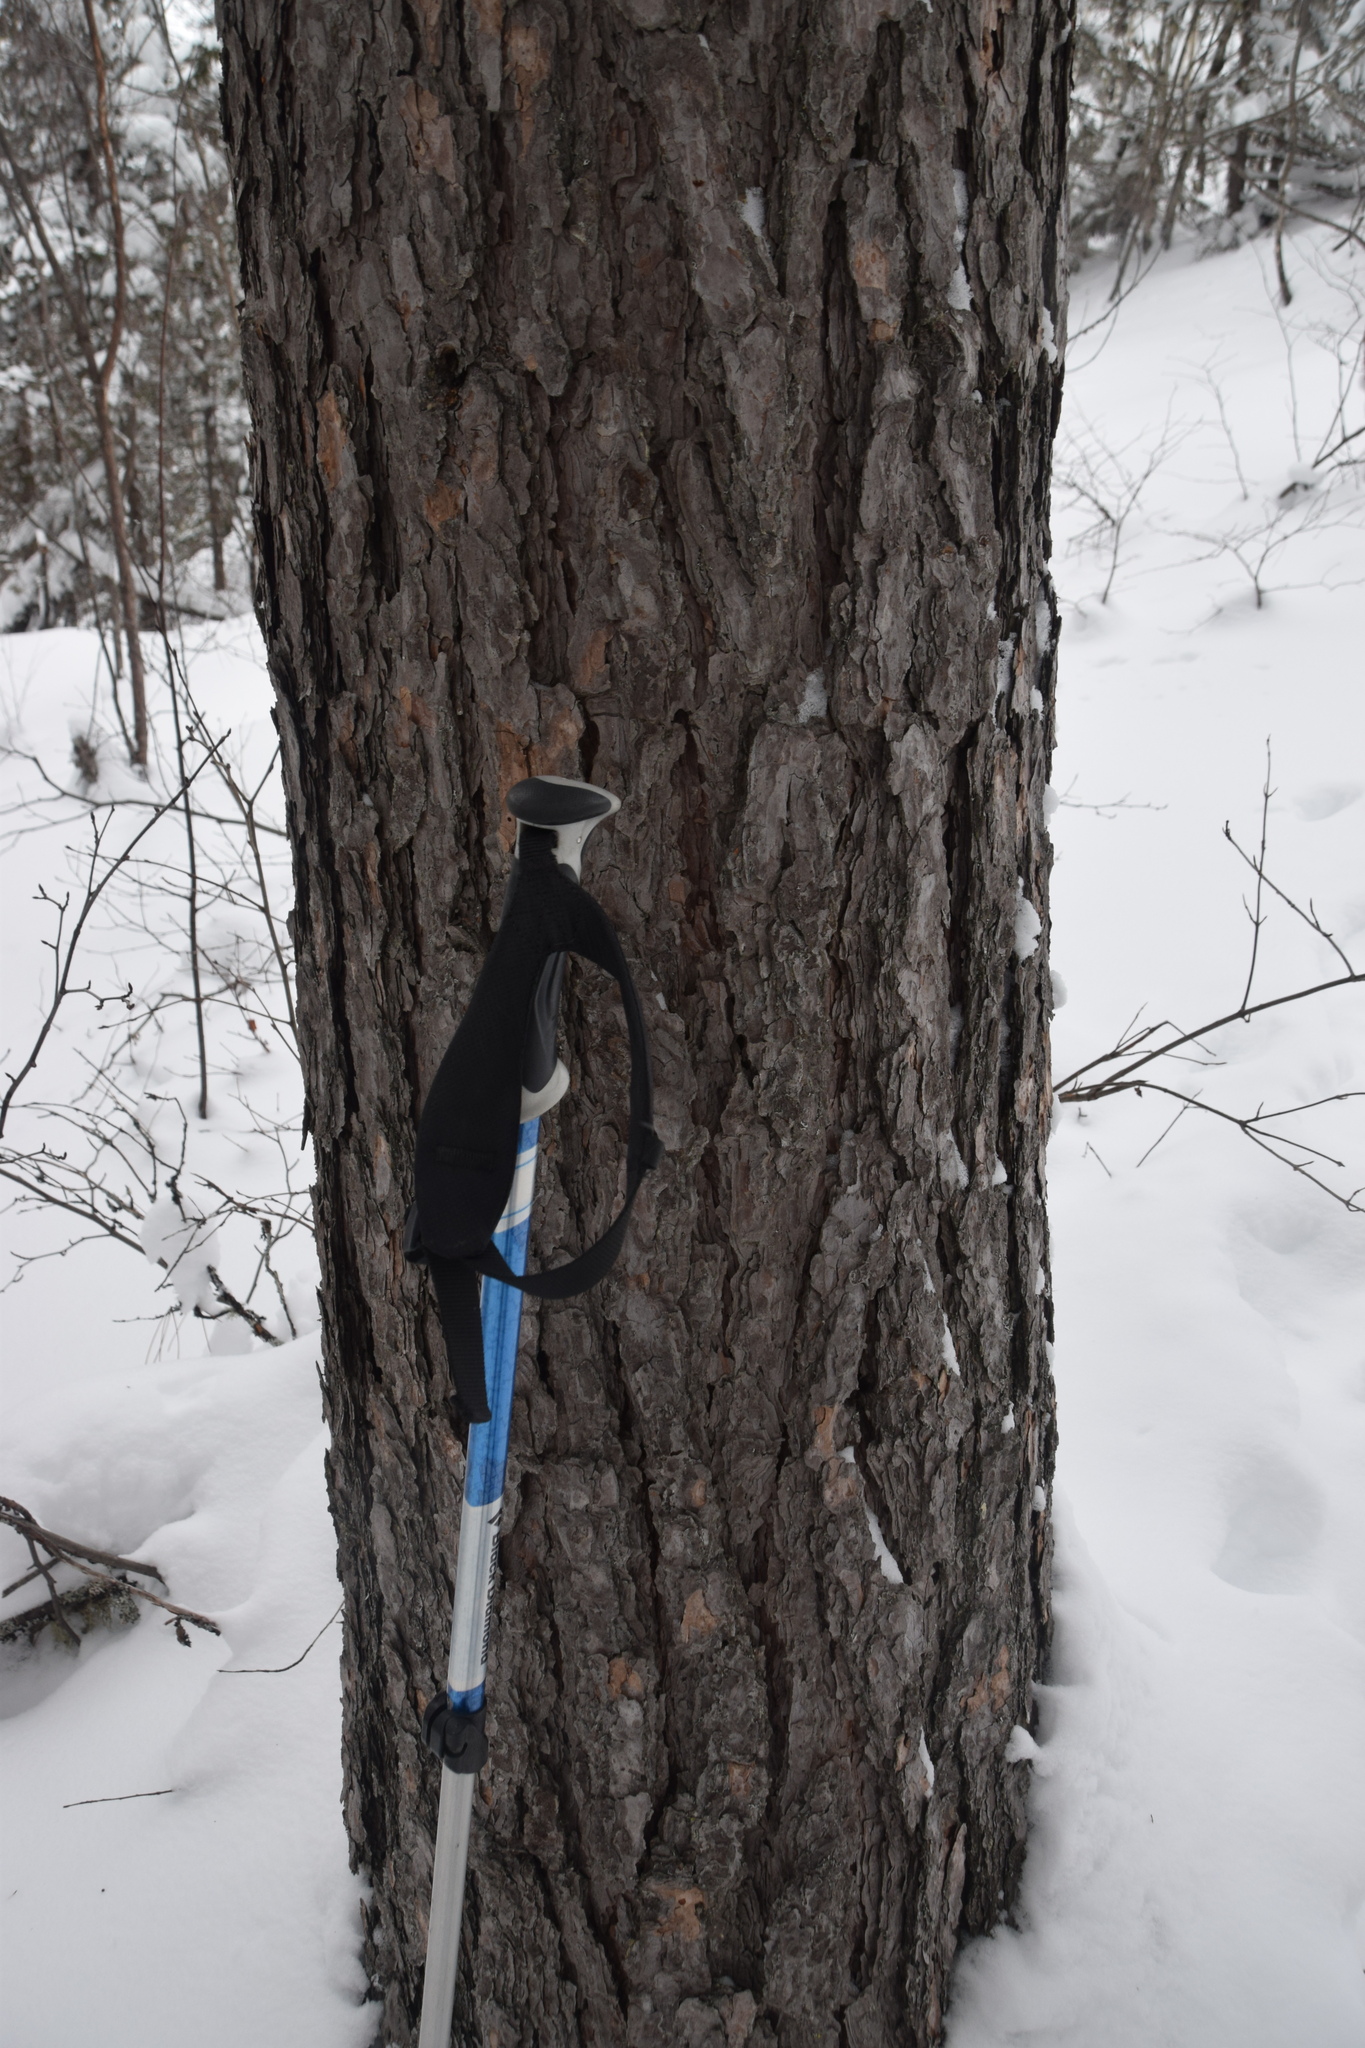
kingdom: Plantae
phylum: Tracheophyta
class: Pinopsida
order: Pinales
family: Pinaceae
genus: Pinus
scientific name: Pinus resinosa
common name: Norway pine
